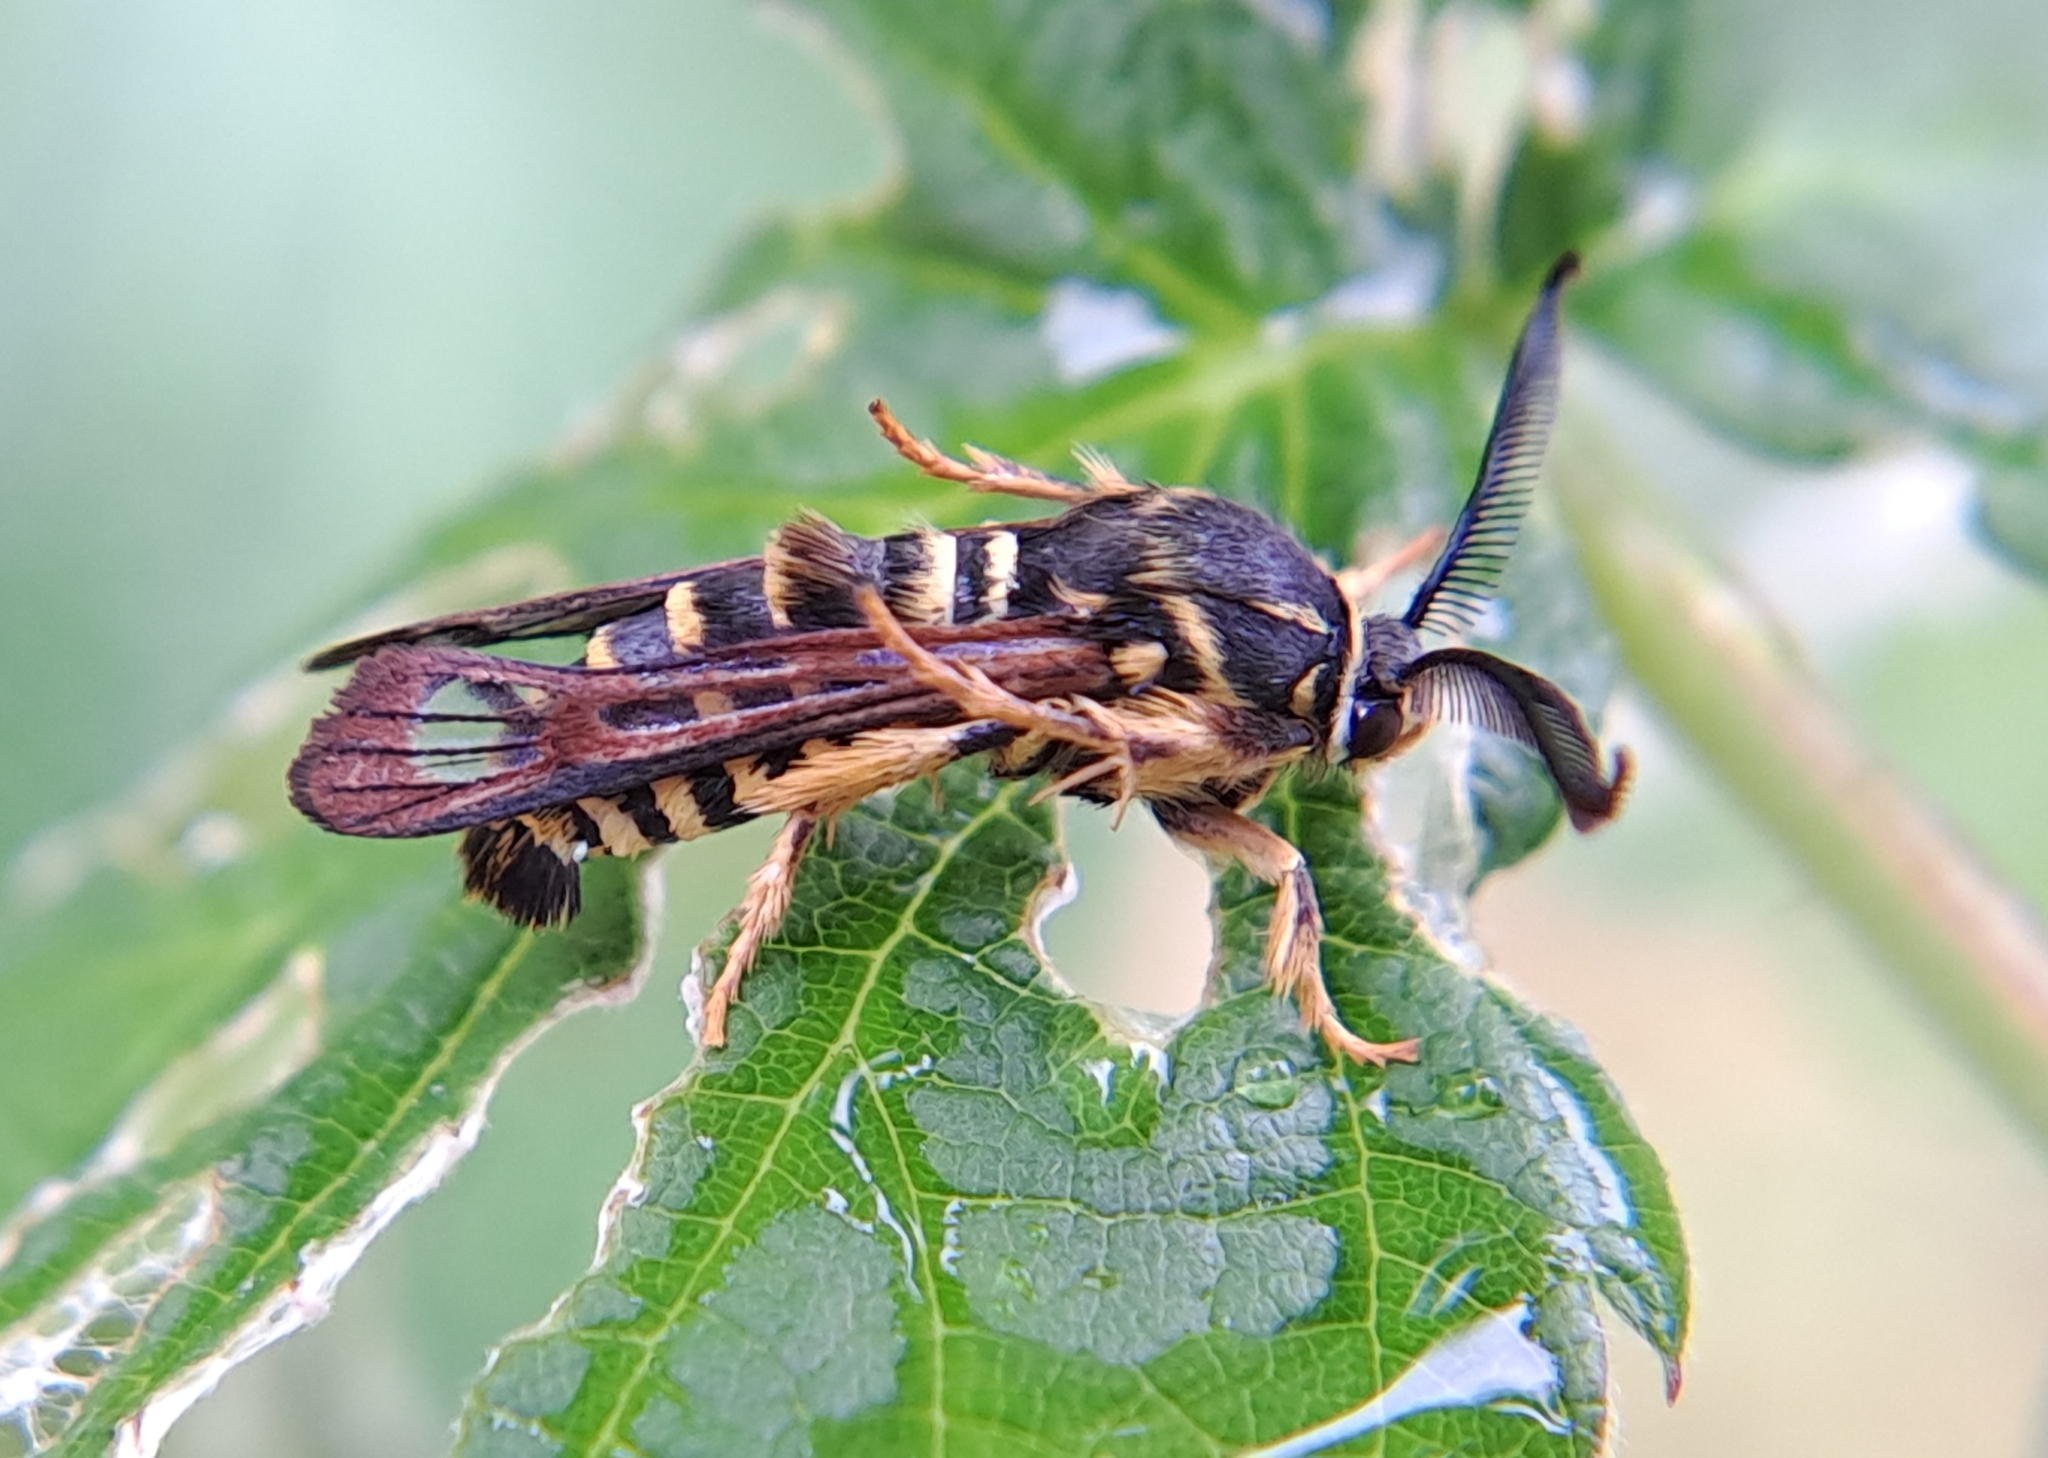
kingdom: Animalia
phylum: Arthropoda
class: Insecta
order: Lepidoptera
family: Sesiidae
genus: Pennisetia
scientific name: Pennisetia marginatum
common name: Raspberry crown borer
